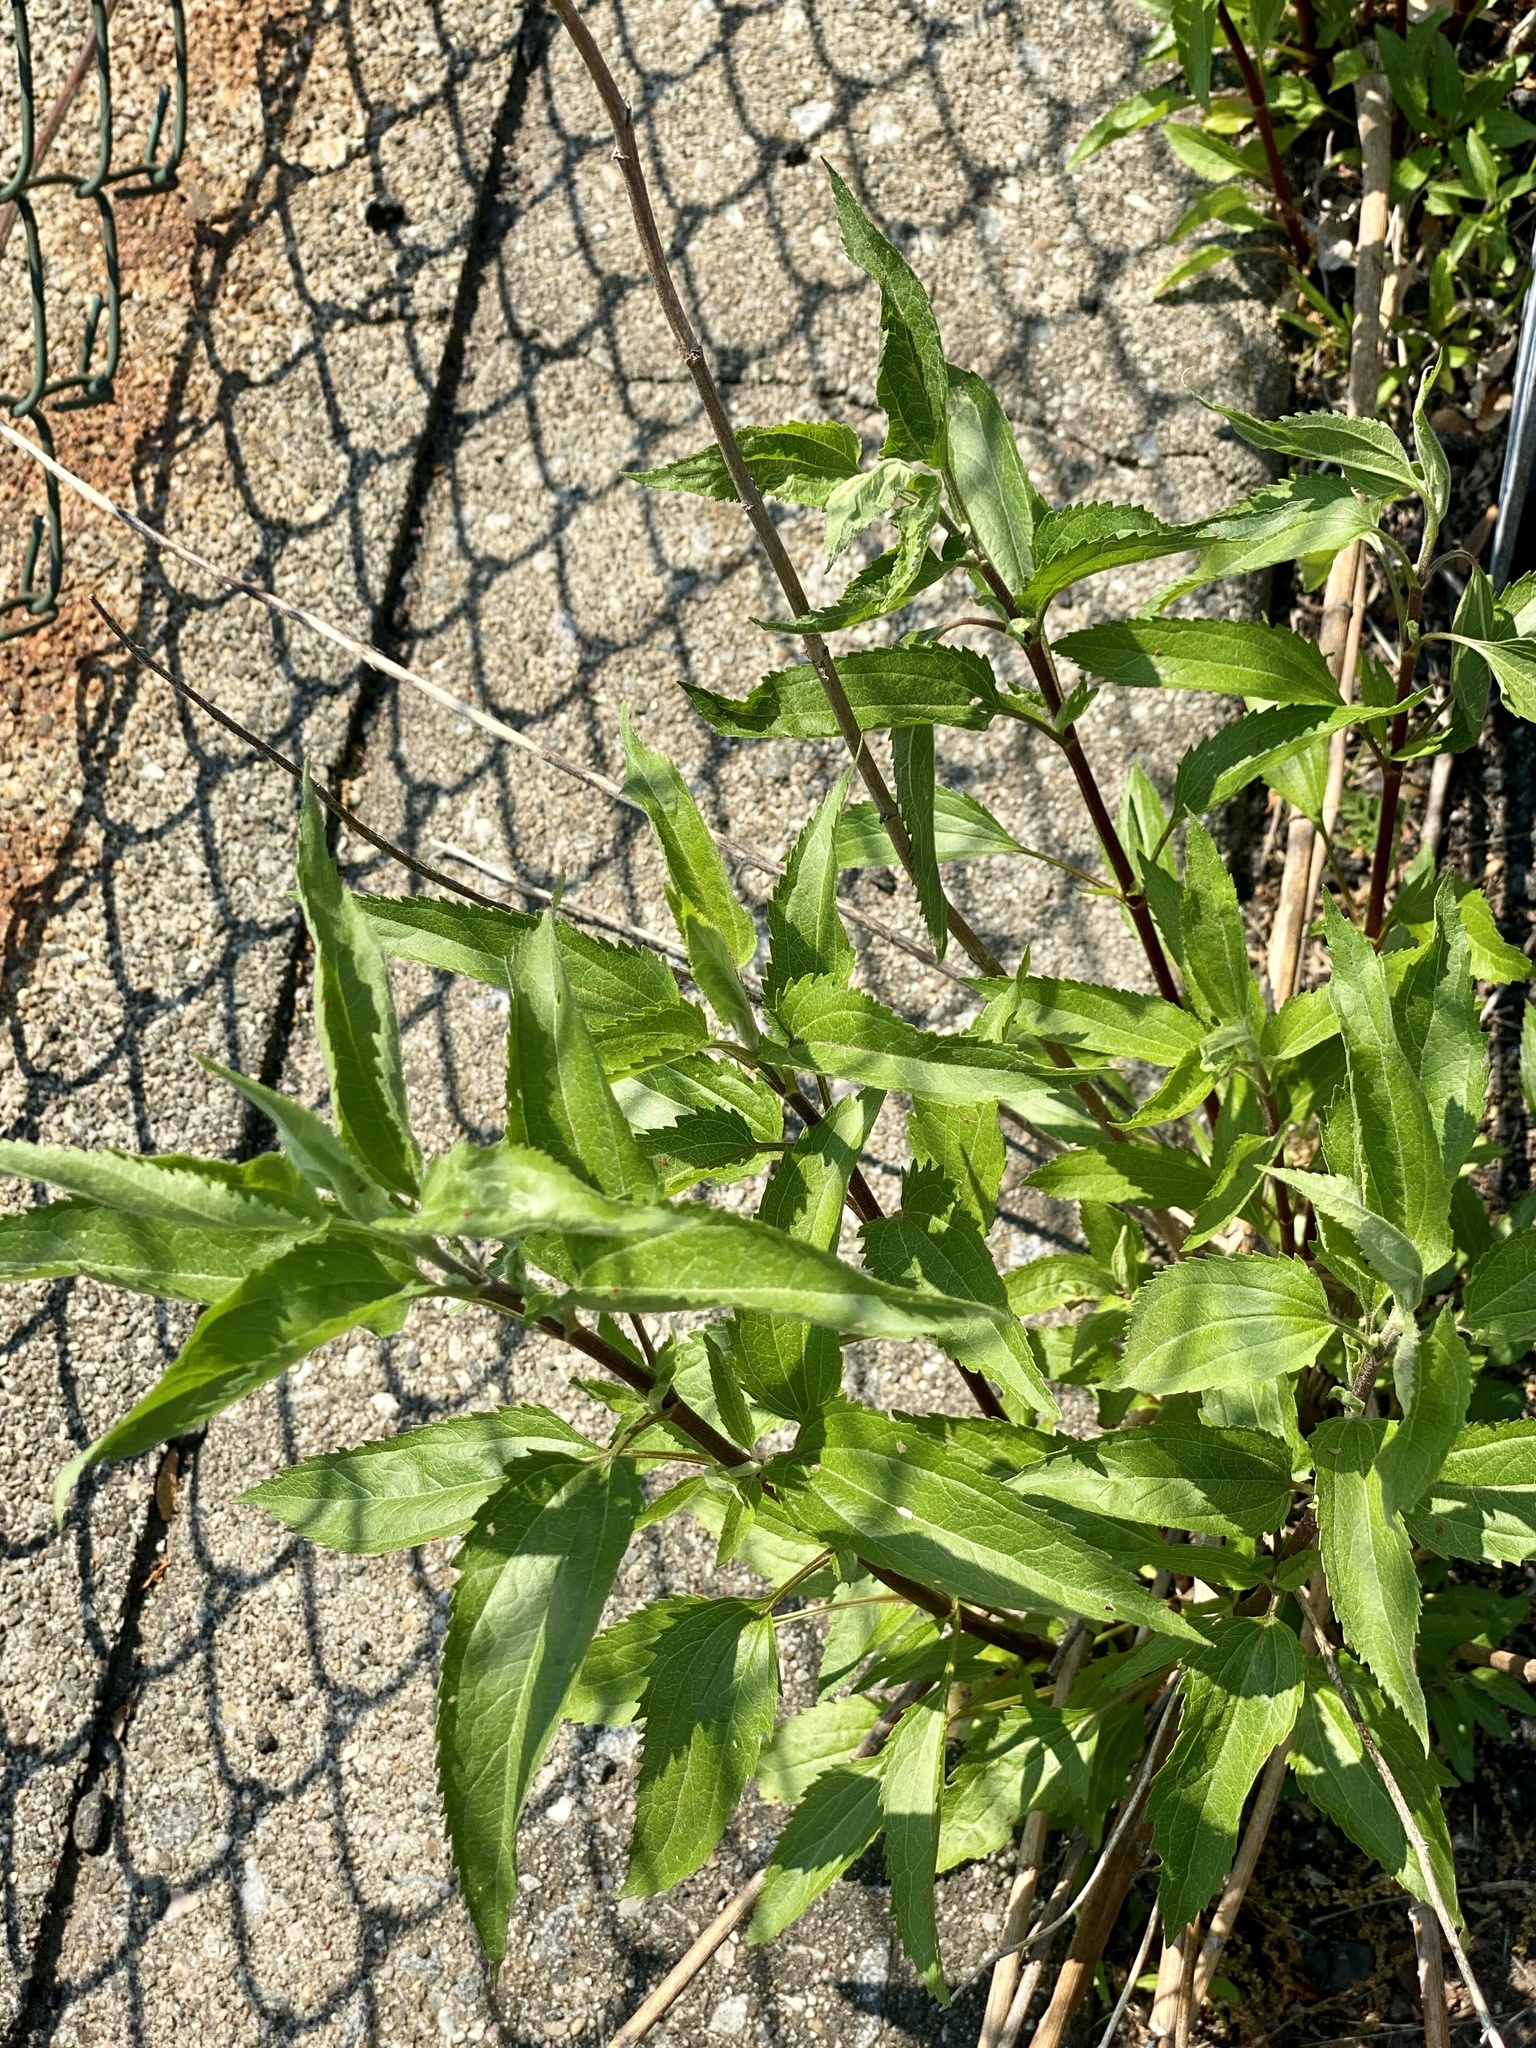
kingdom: Plantae
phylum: Tracheophyta
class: Magnoliopsida
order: Asterales
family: Asteraceae
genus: Eupatorium
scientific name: Eupatorium serotinum
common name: Late boneset
